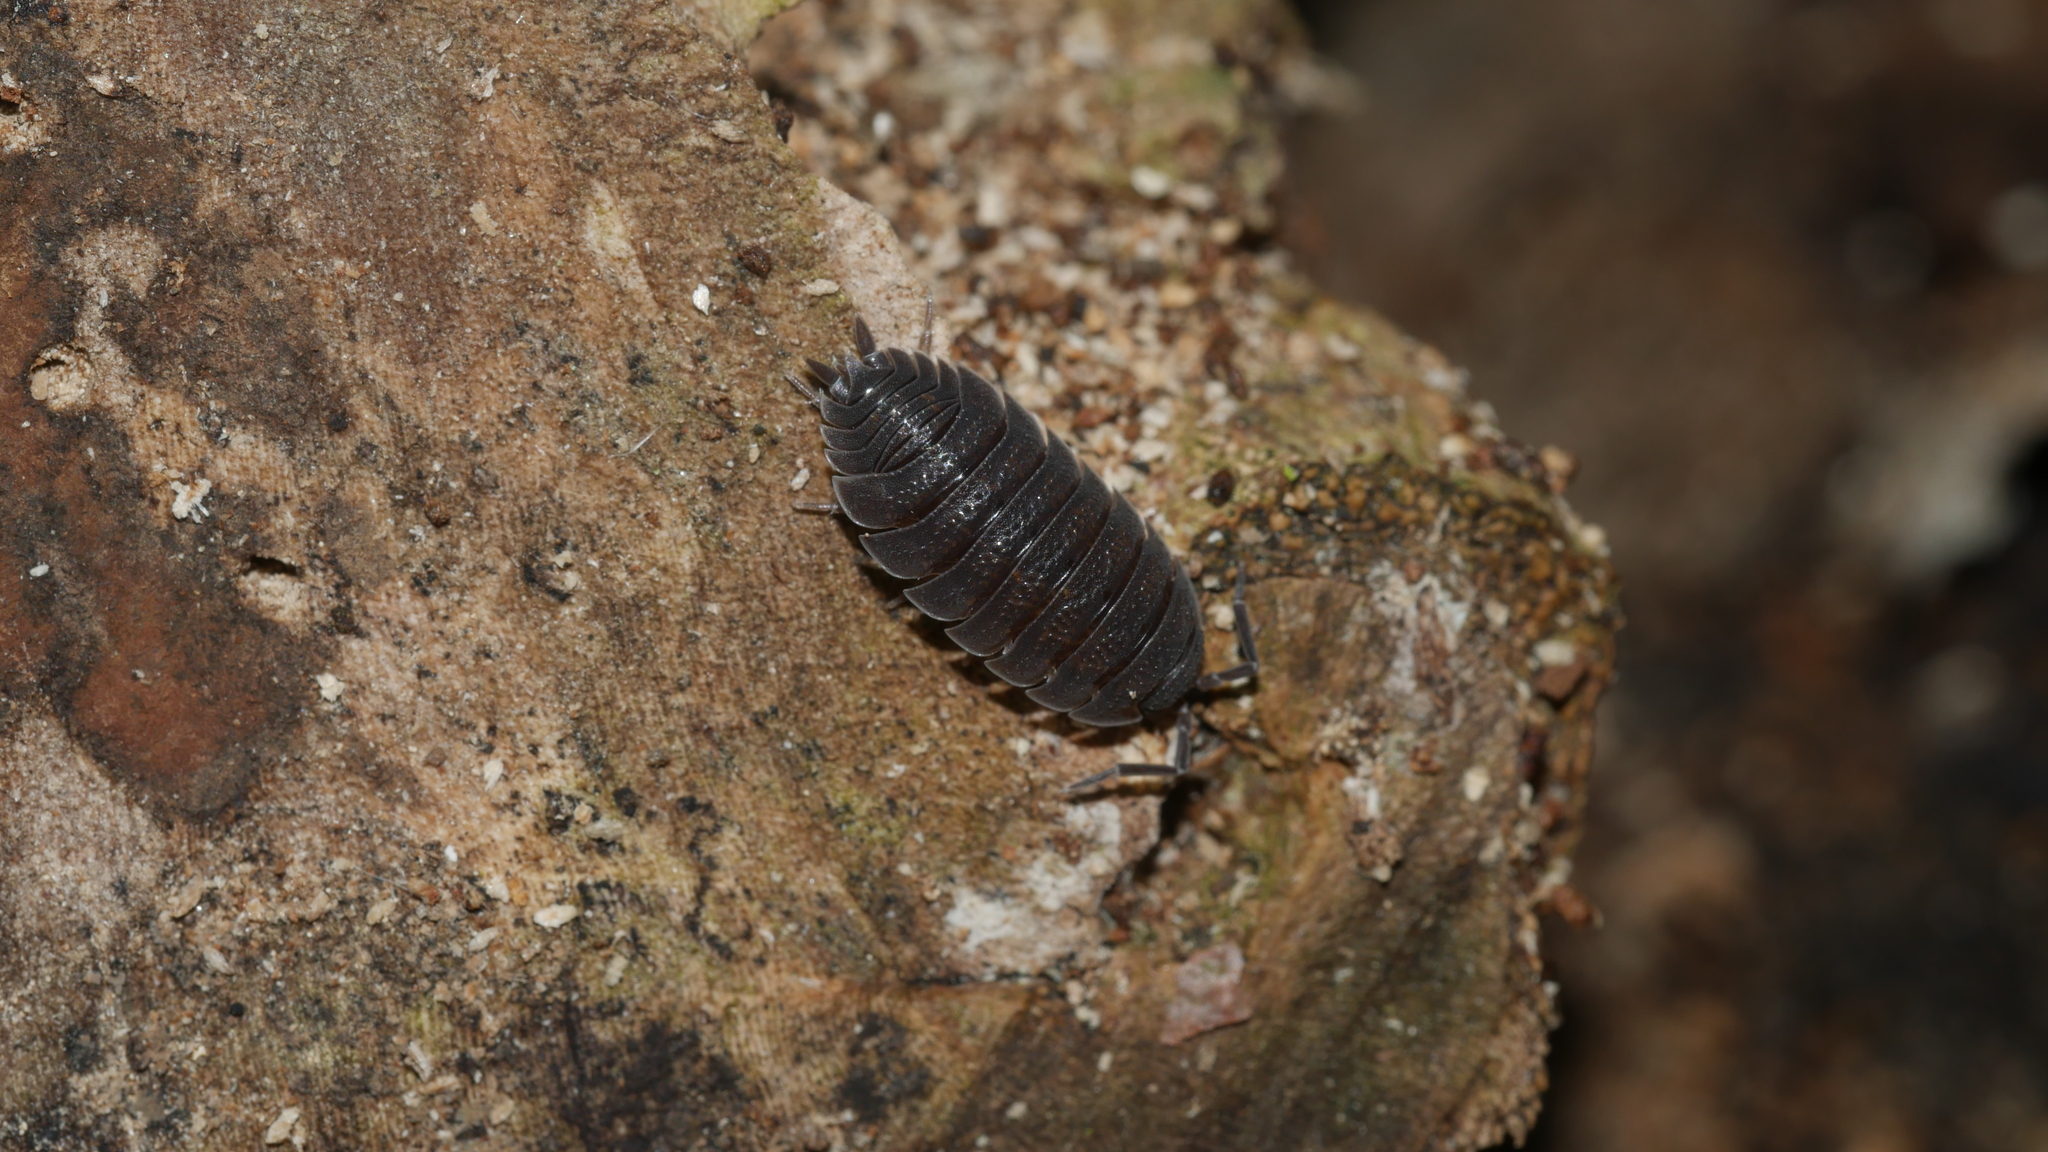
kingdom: Animalia
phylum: Arthropoda
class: Malacostraca
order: Isopoda
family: Porcellionidae
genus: Porcellio
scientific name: Porcellio scaber
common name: Common rough woodlouse
